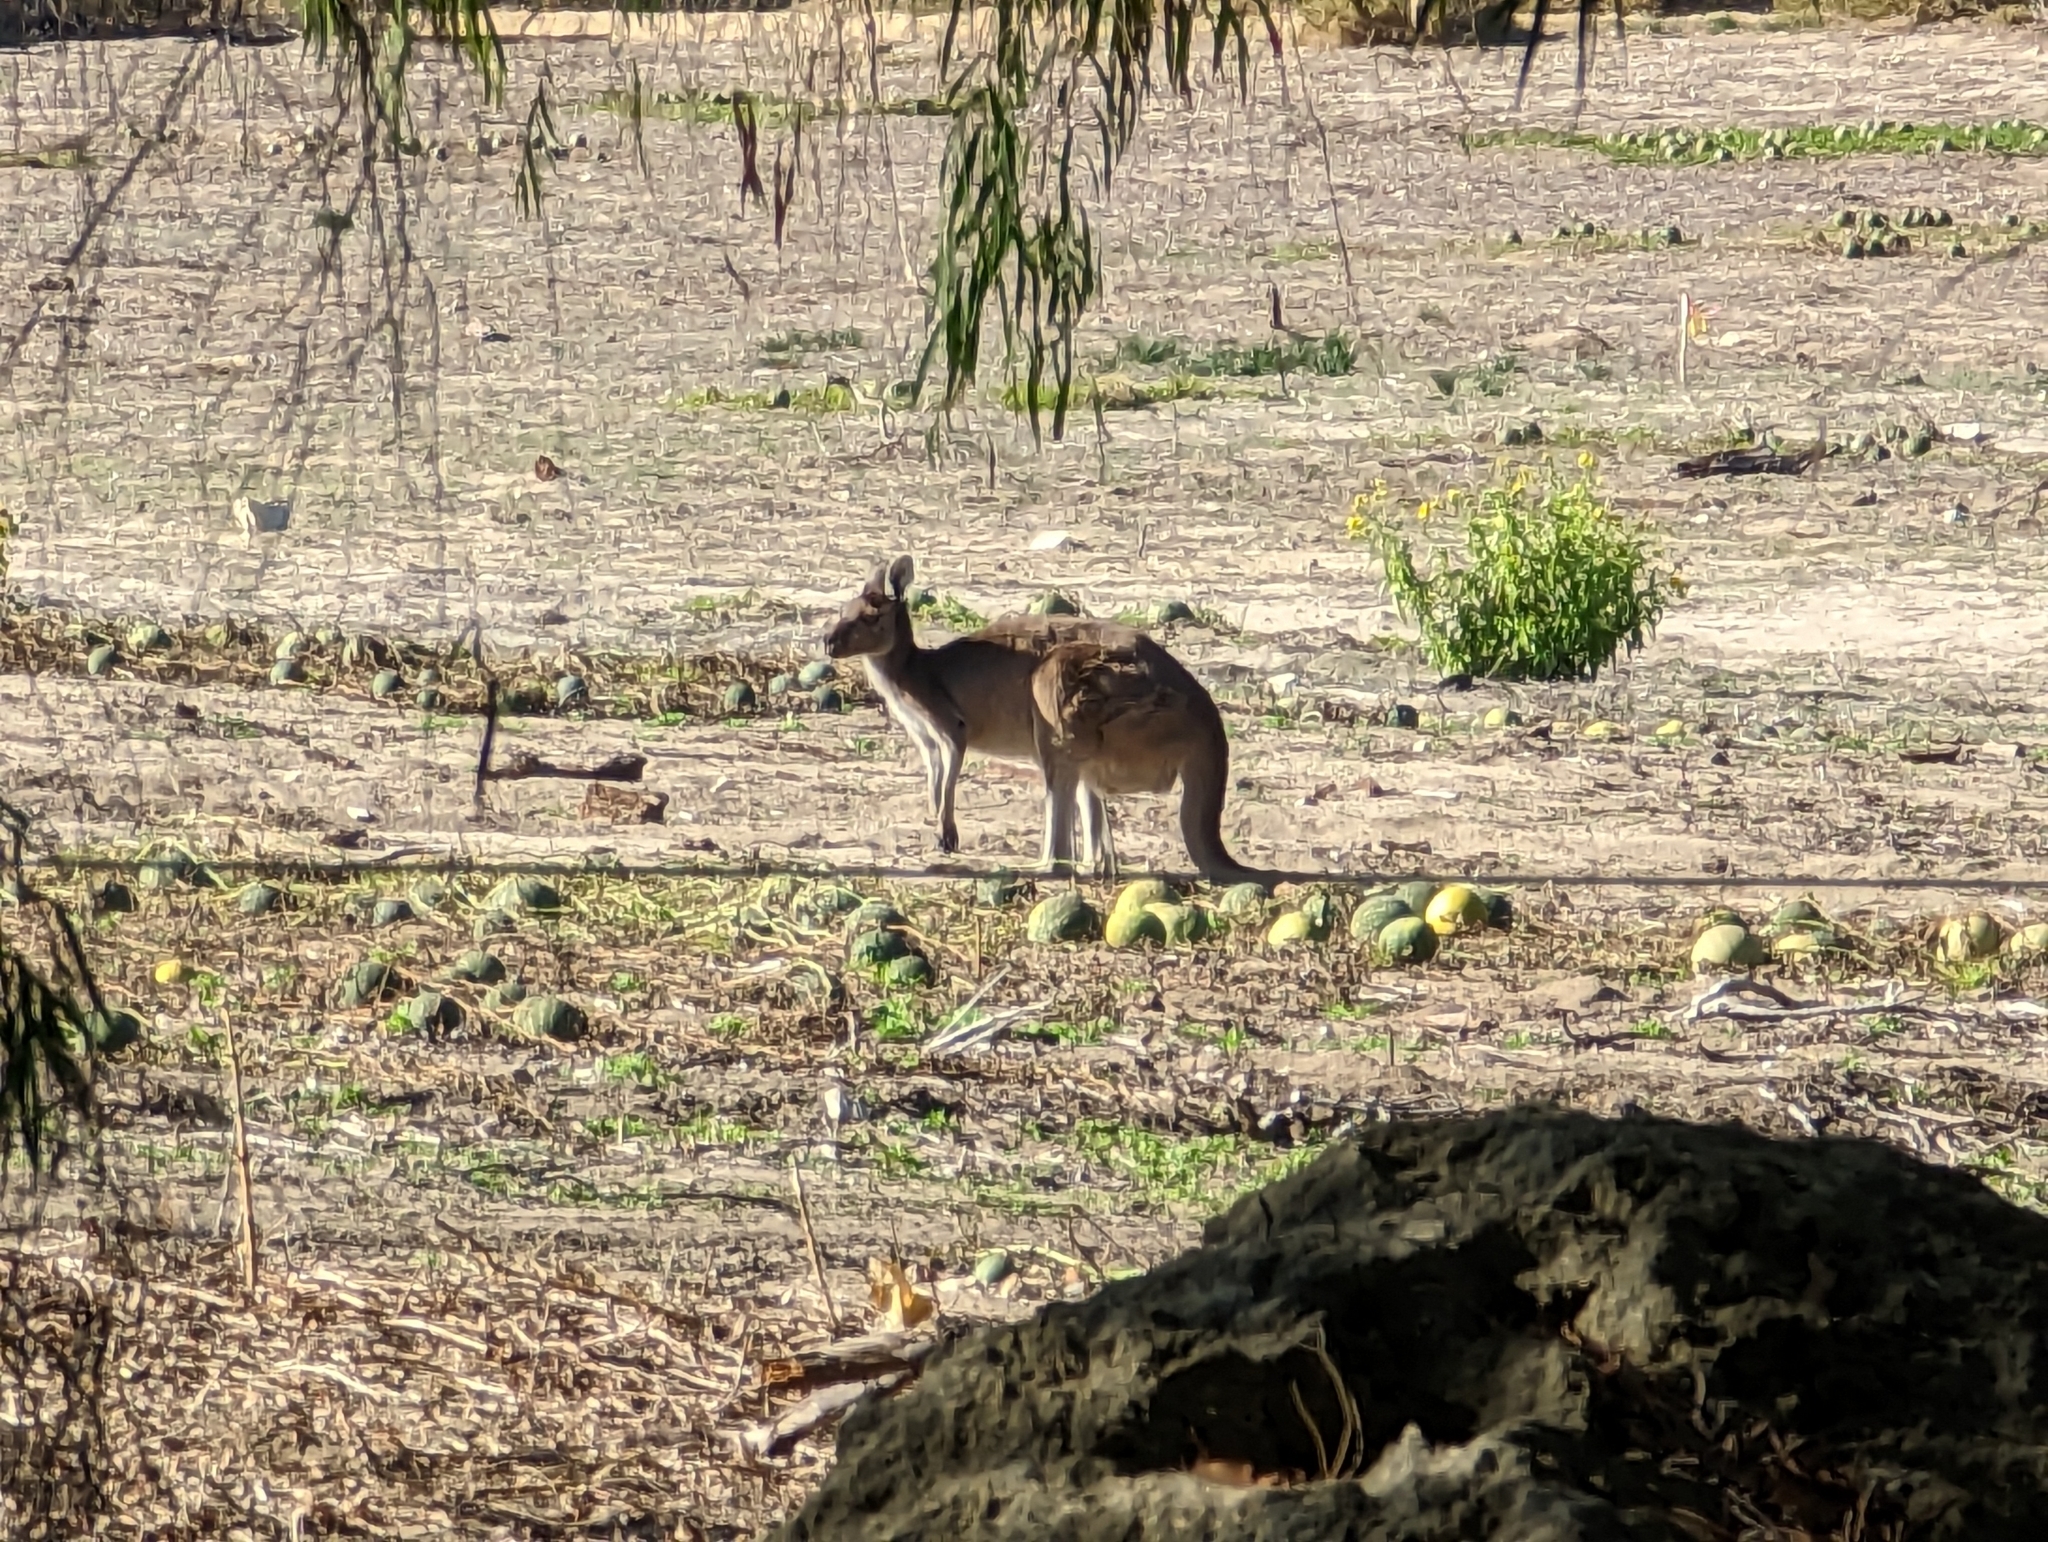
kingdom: Animalia
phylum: Chordata
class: Mammalia
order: Diprotodontia
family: Macropodidae
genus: Macropus
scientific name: Macropus fuliginosus
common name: Western grey kangaroo
